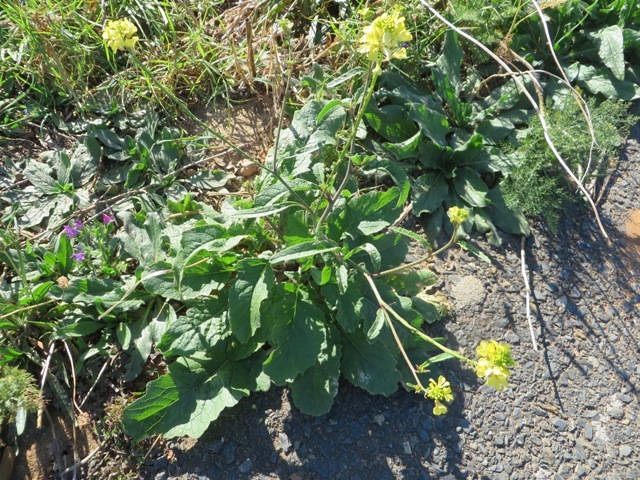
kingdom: Plantae
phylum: Tracheophyta
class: Magnoliopsida
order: Brassicales
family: Brassicaceae
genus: Rapistrum
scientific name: Rapistrum rugosum
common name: Annual bastardcabbage
